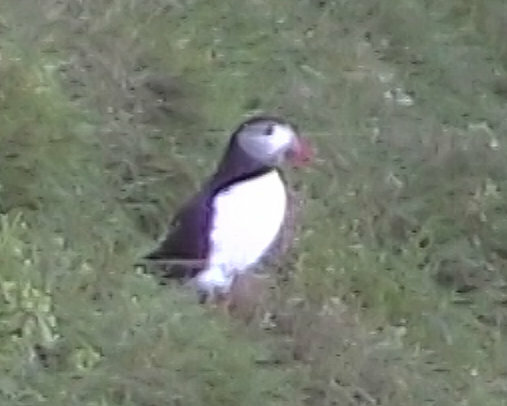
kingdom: Animalia
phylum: Chordata
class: Aves
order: Charadriiformes
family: Alcidae
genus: Fratercula
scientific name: Fratercula arctica
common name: Atlantic puffin
